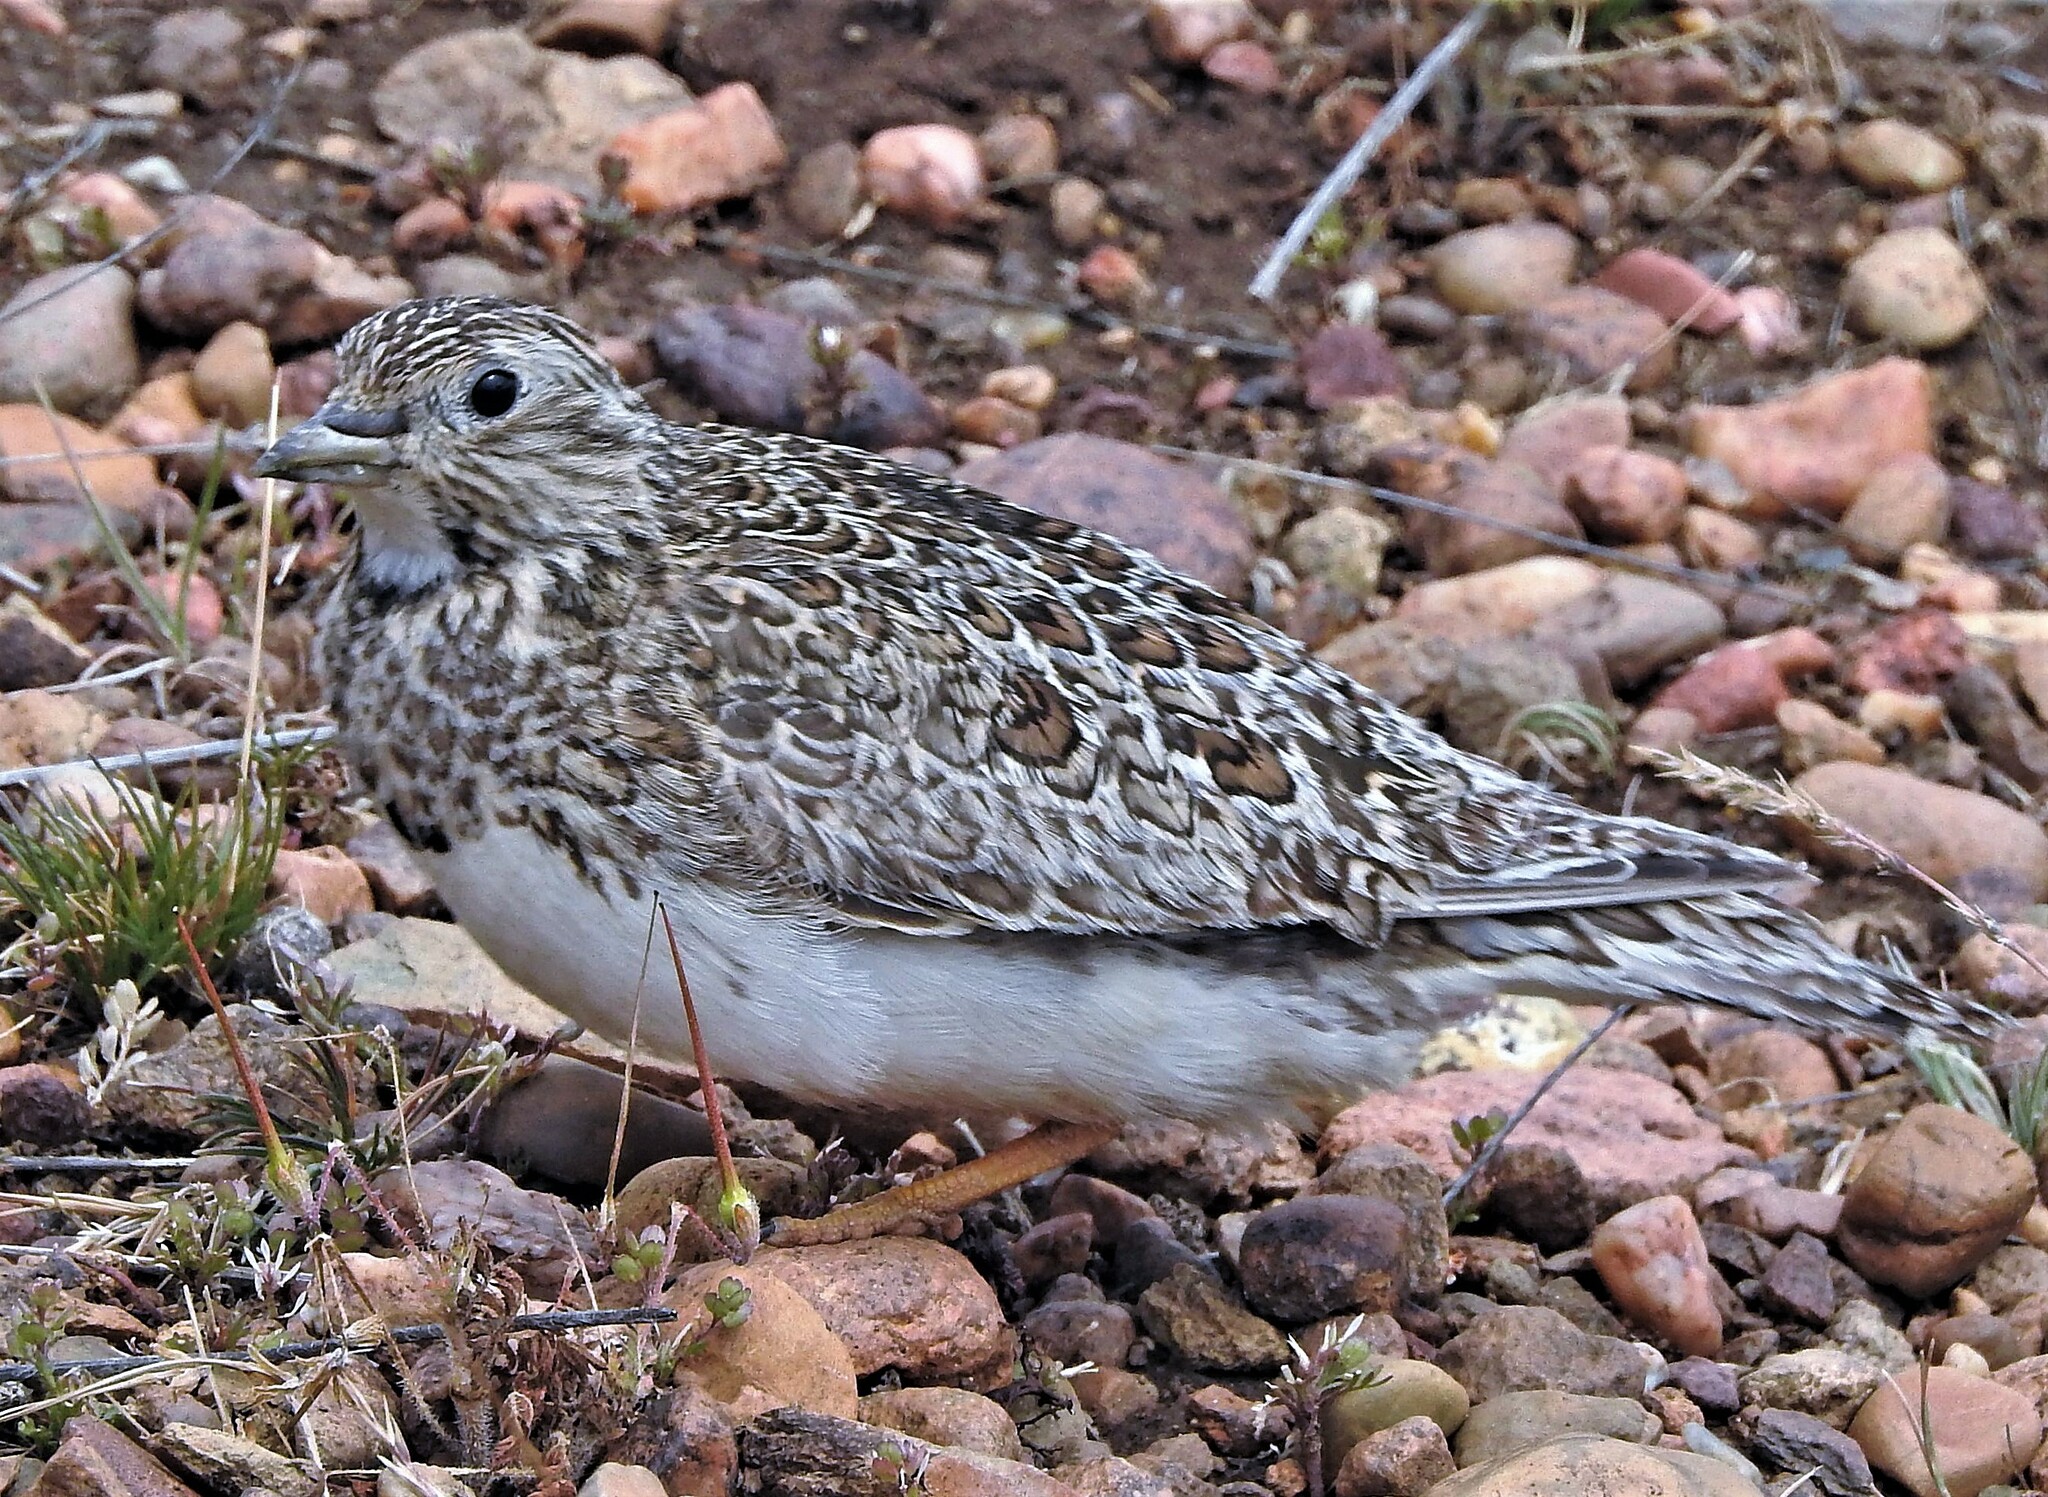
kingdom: Animalia
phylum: Chordata
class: Aves
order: Charadriiformes
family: Thinocoridae
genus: Thinocorus
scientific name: Thinocorus rumicivorus
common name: Least seedsnipe
